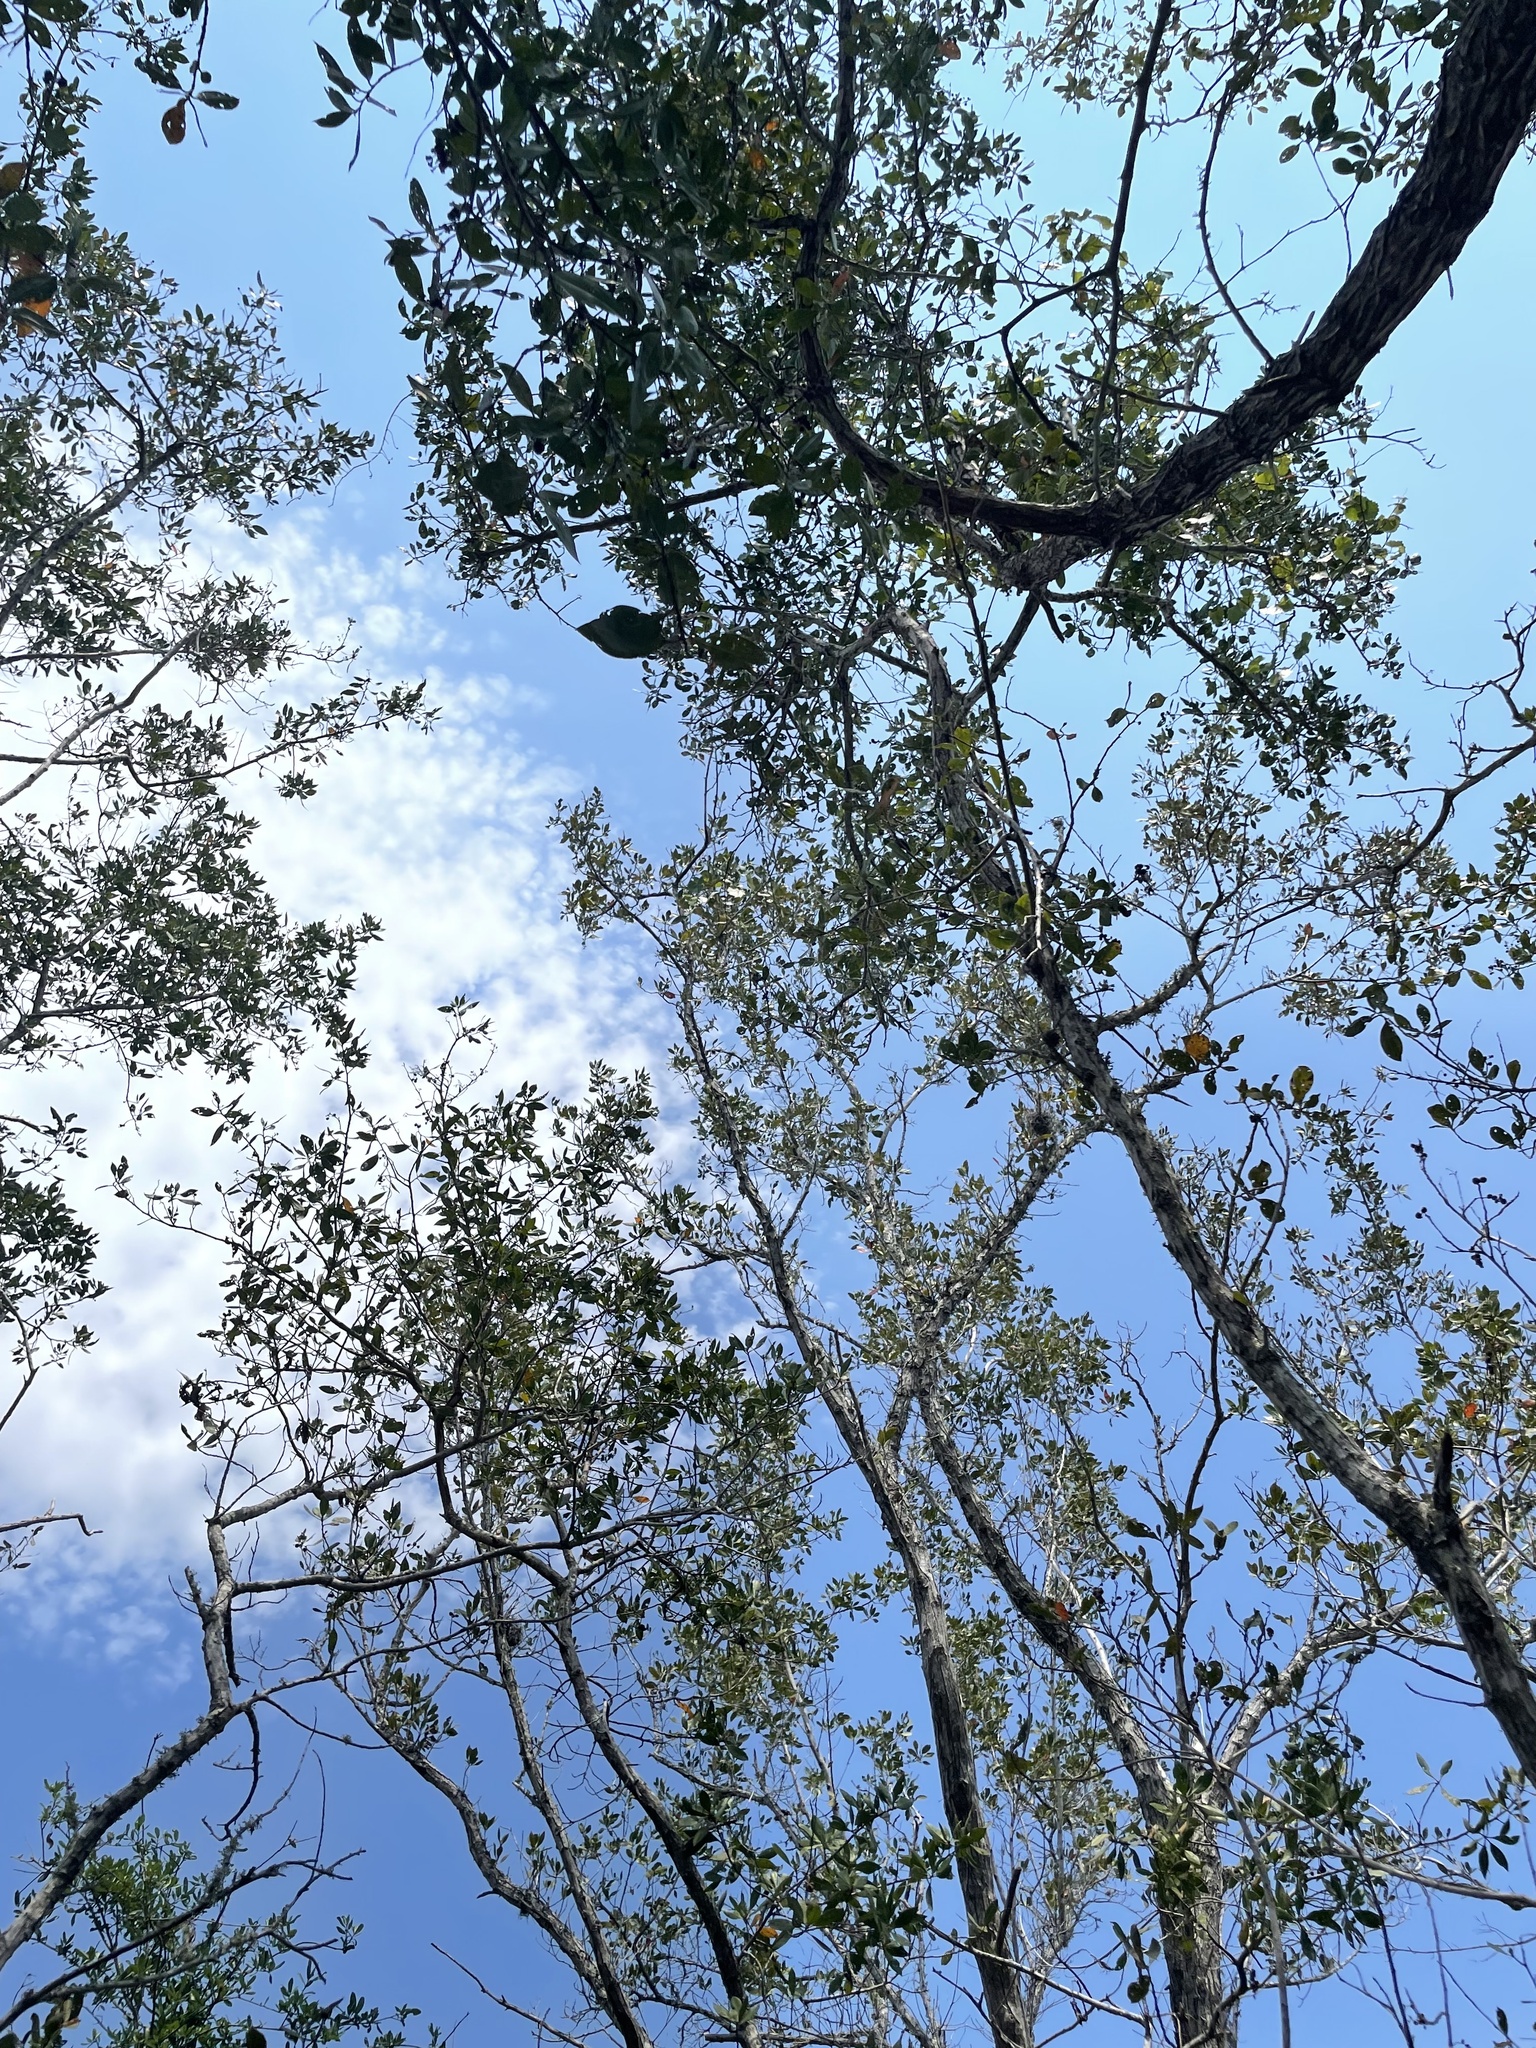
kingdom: Plantae
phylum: Tracheophyta
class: Magnoliopsida
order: Myrtales
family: Combretaceae
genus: Conocarpus
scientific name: Conocarpus erectus
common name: Button mangrove
